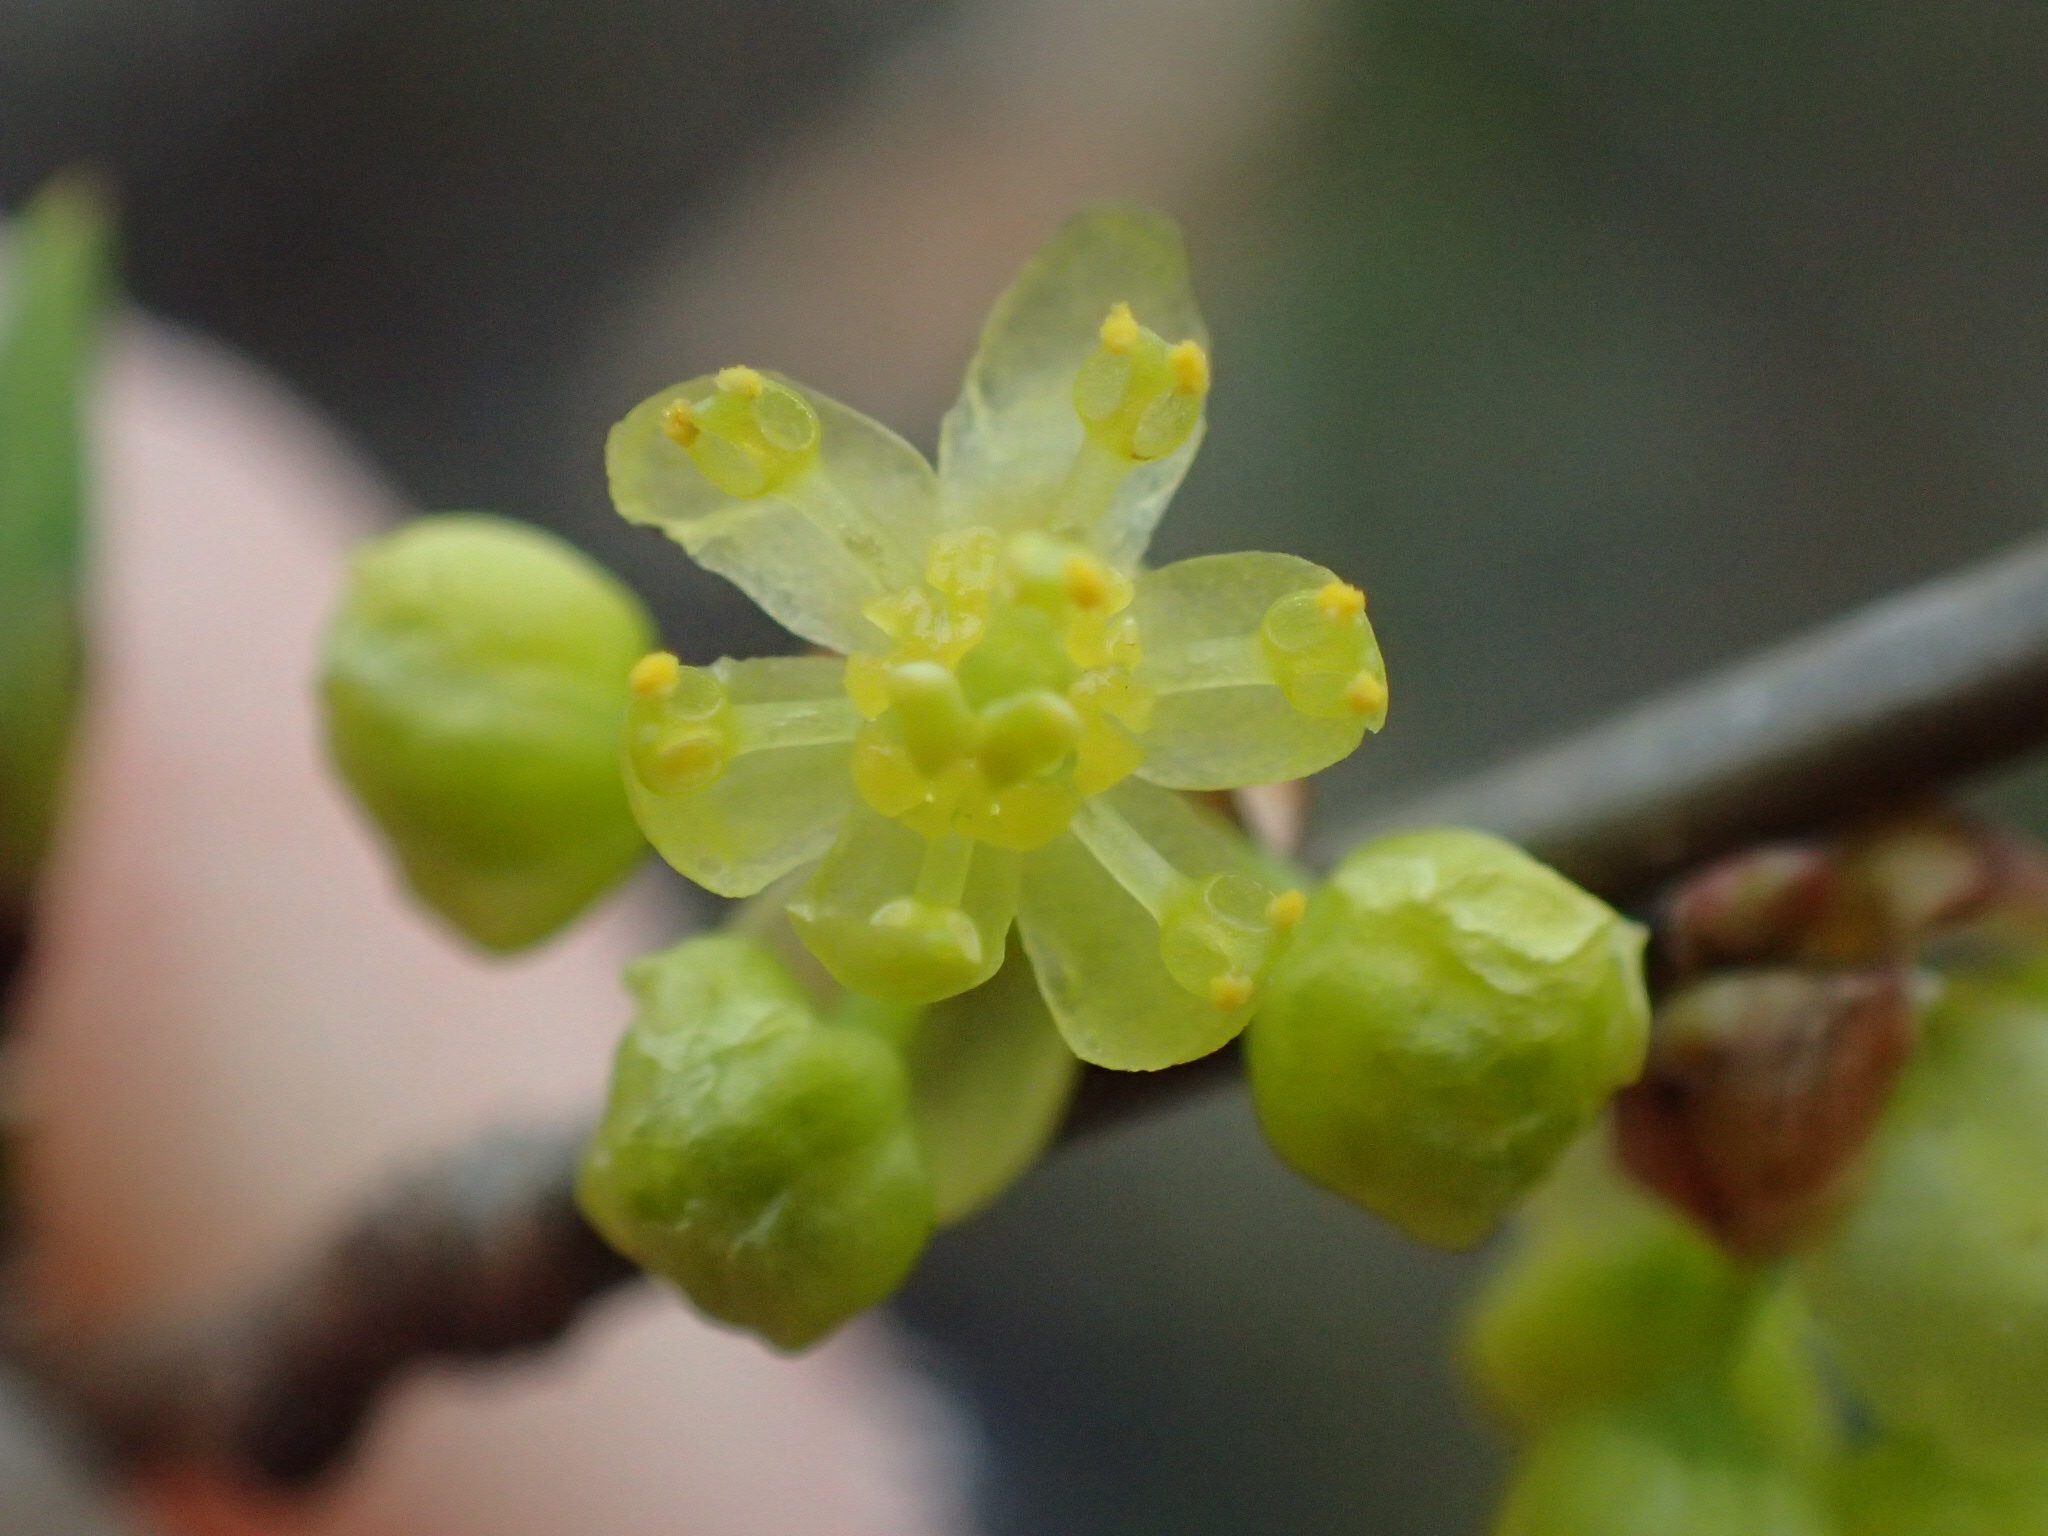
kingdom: Plantae
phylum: Tracheophyta
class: Magnoliopsida
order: Laurales
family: Lauraceae
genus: Lindera
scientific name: Lindera benzoin
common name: Spicebush
